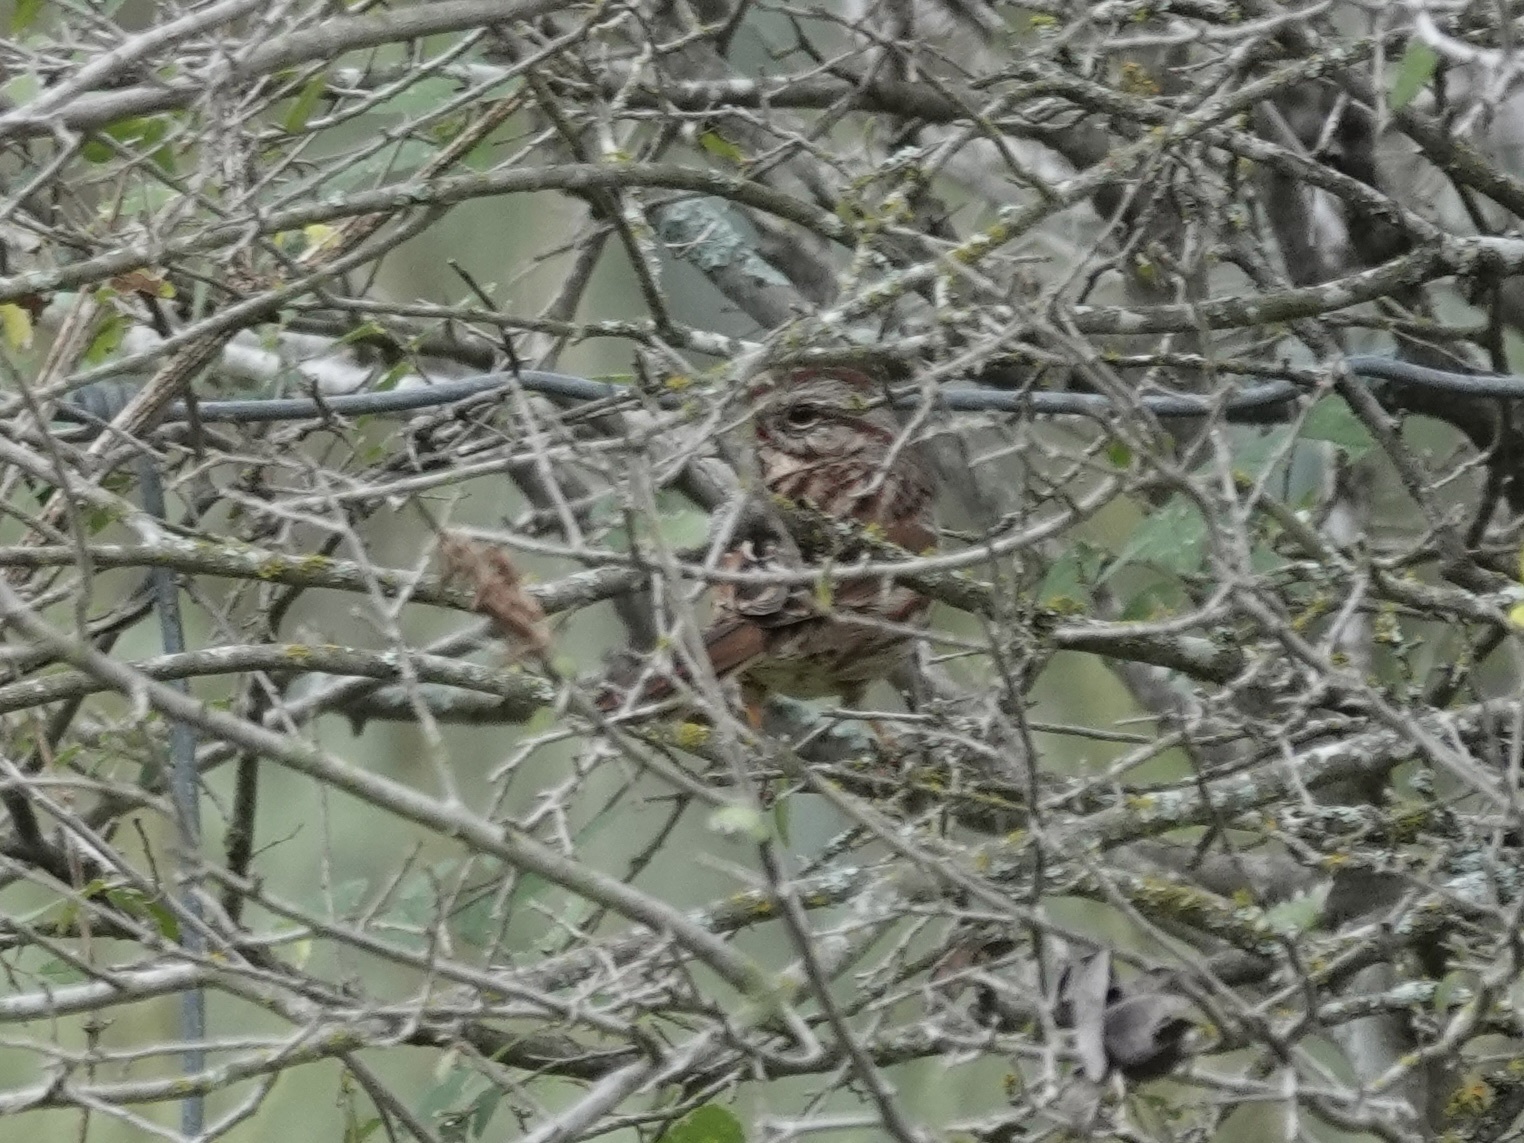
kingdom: Animalia
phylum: Chordata
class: Aves
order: Passeriformes
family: Passerellidae
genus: Melospiza
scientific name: Melospiza melodia
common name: Song sparrow
